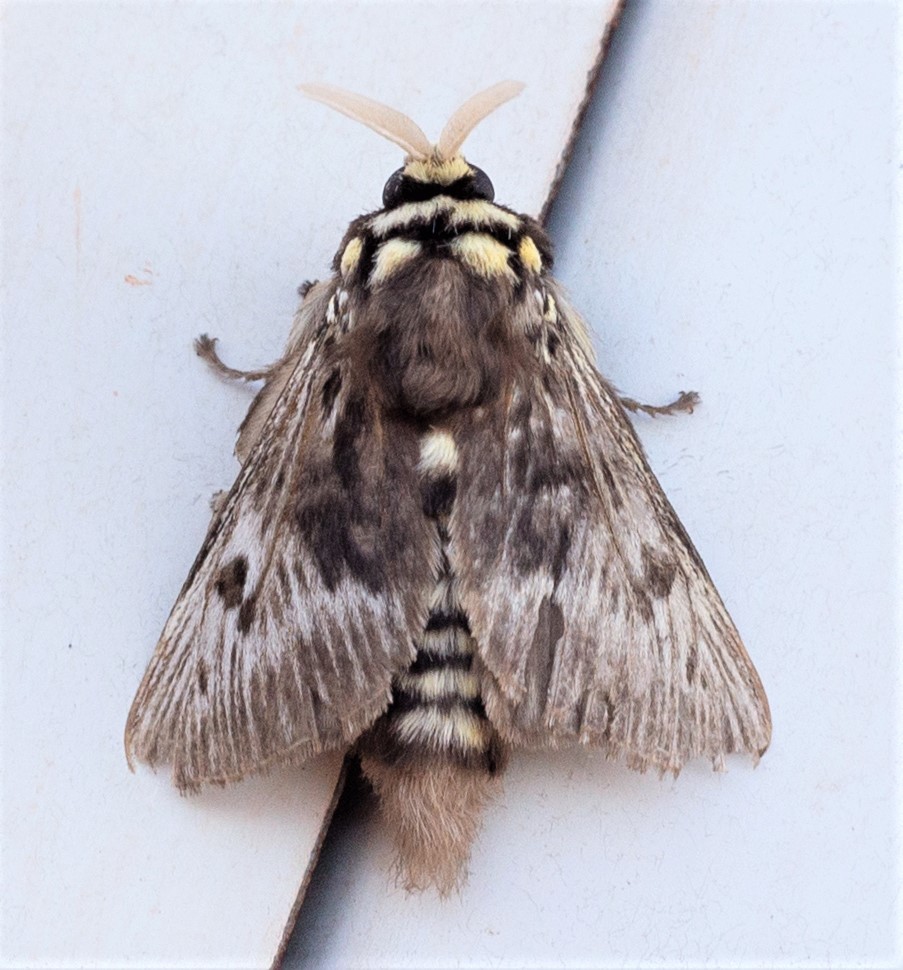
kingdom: Animalia
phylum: Arthropoda
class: Insecta
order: Lepidoptera
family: Megalopygidae
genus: Megalopyge
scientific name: Megalopyge albicollis
